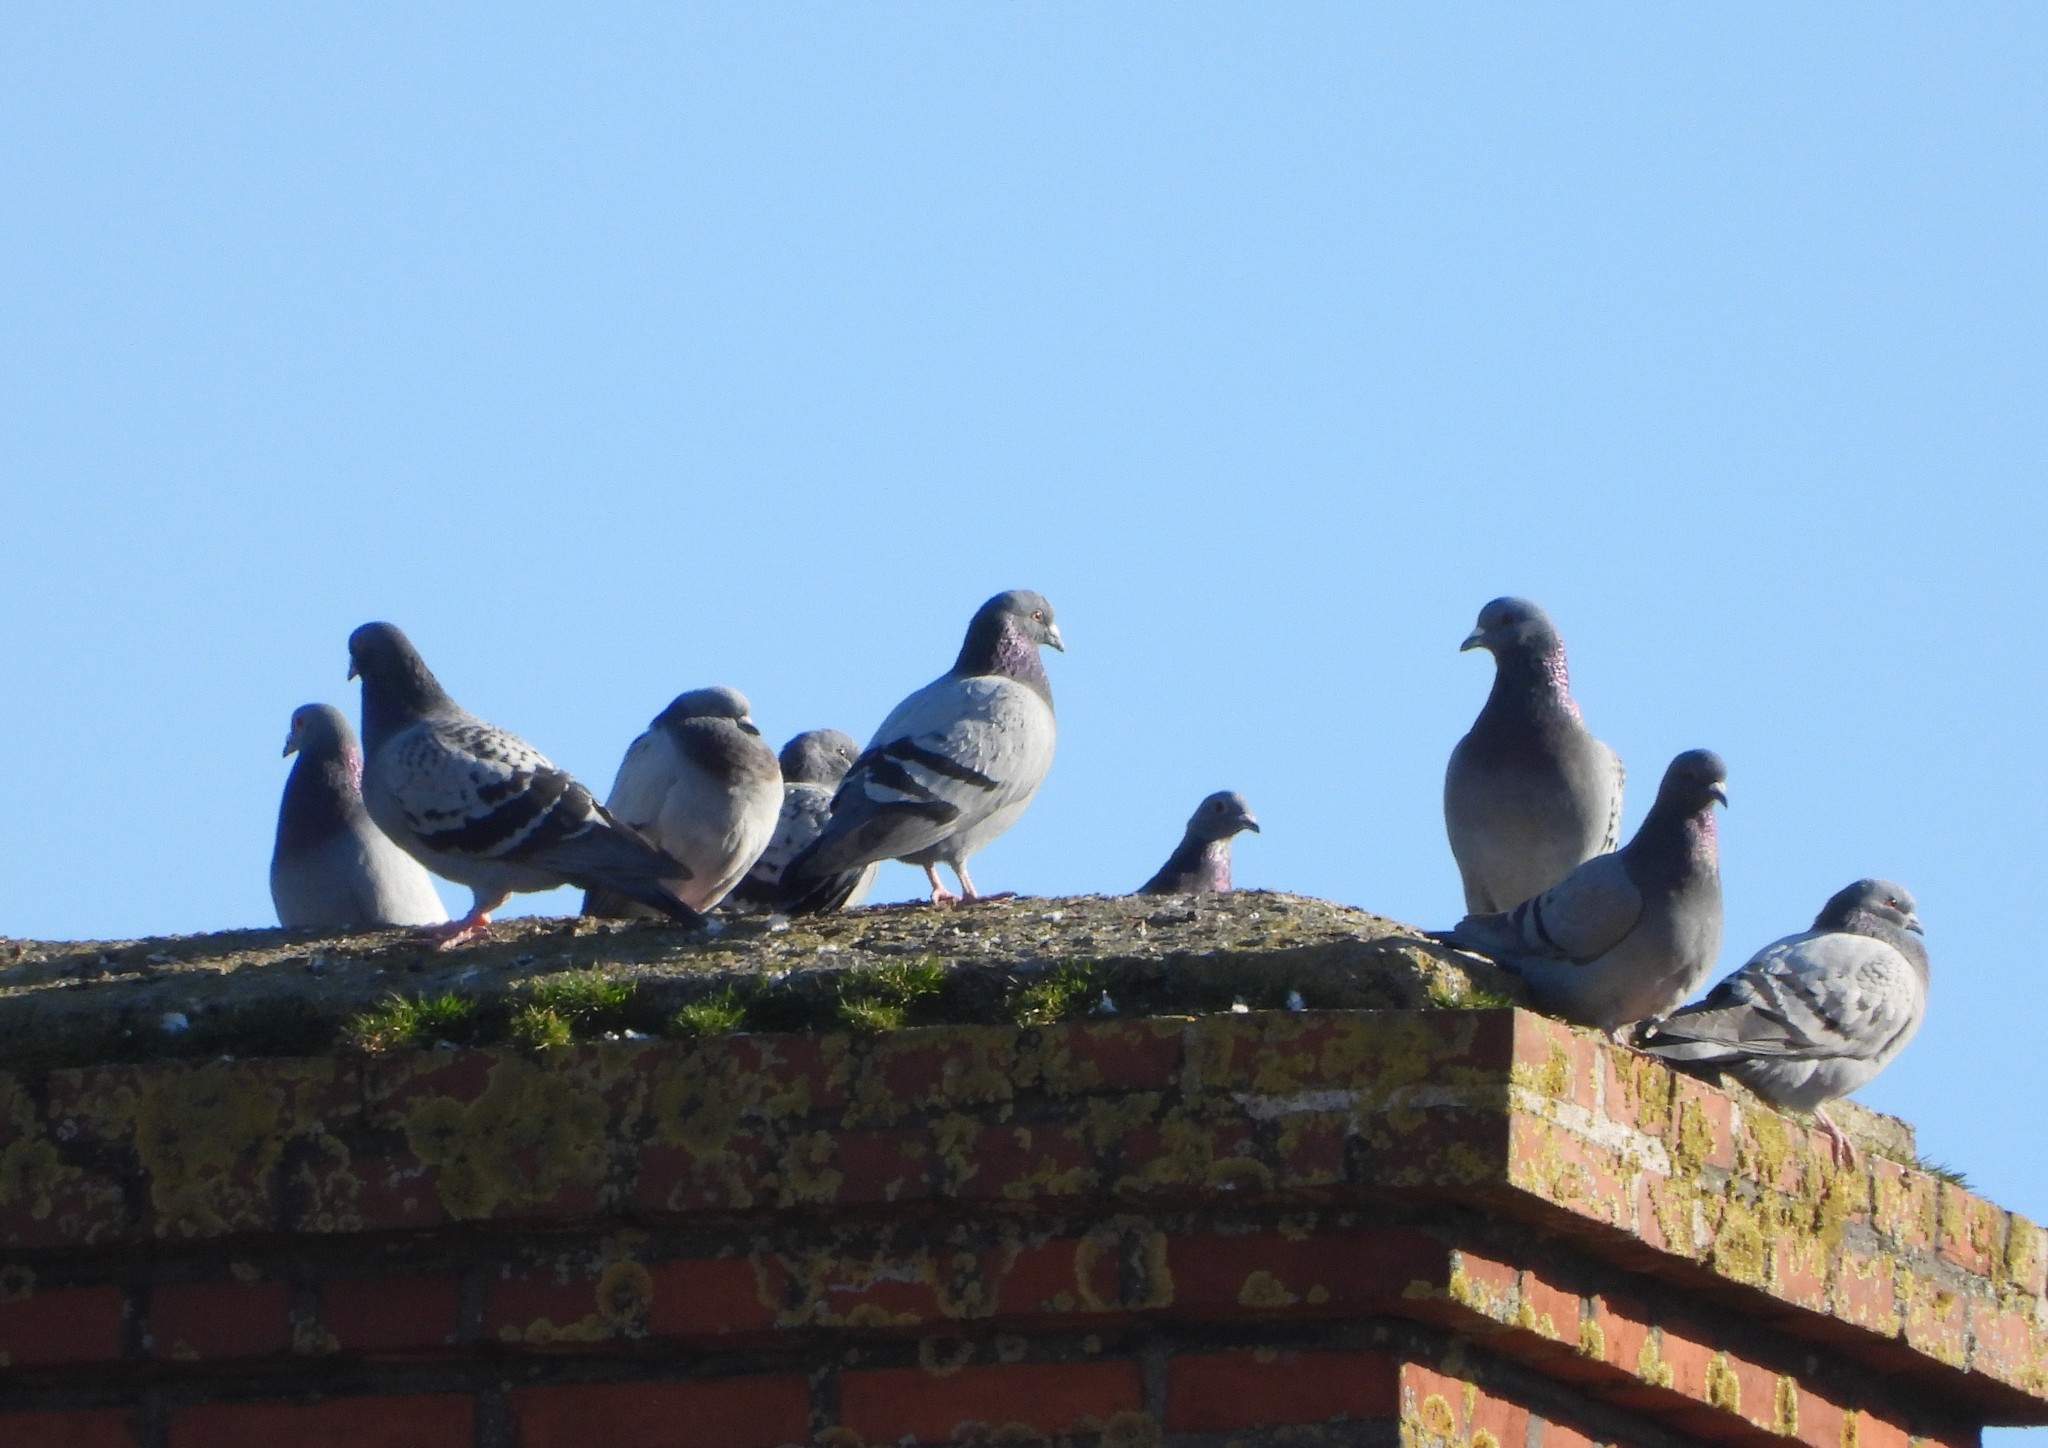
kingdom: Animalia
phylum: Chordata
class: Aves
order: Columbiformes
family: Columbidae
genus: Columba
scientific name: Columba livia
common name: Rock pigeon
